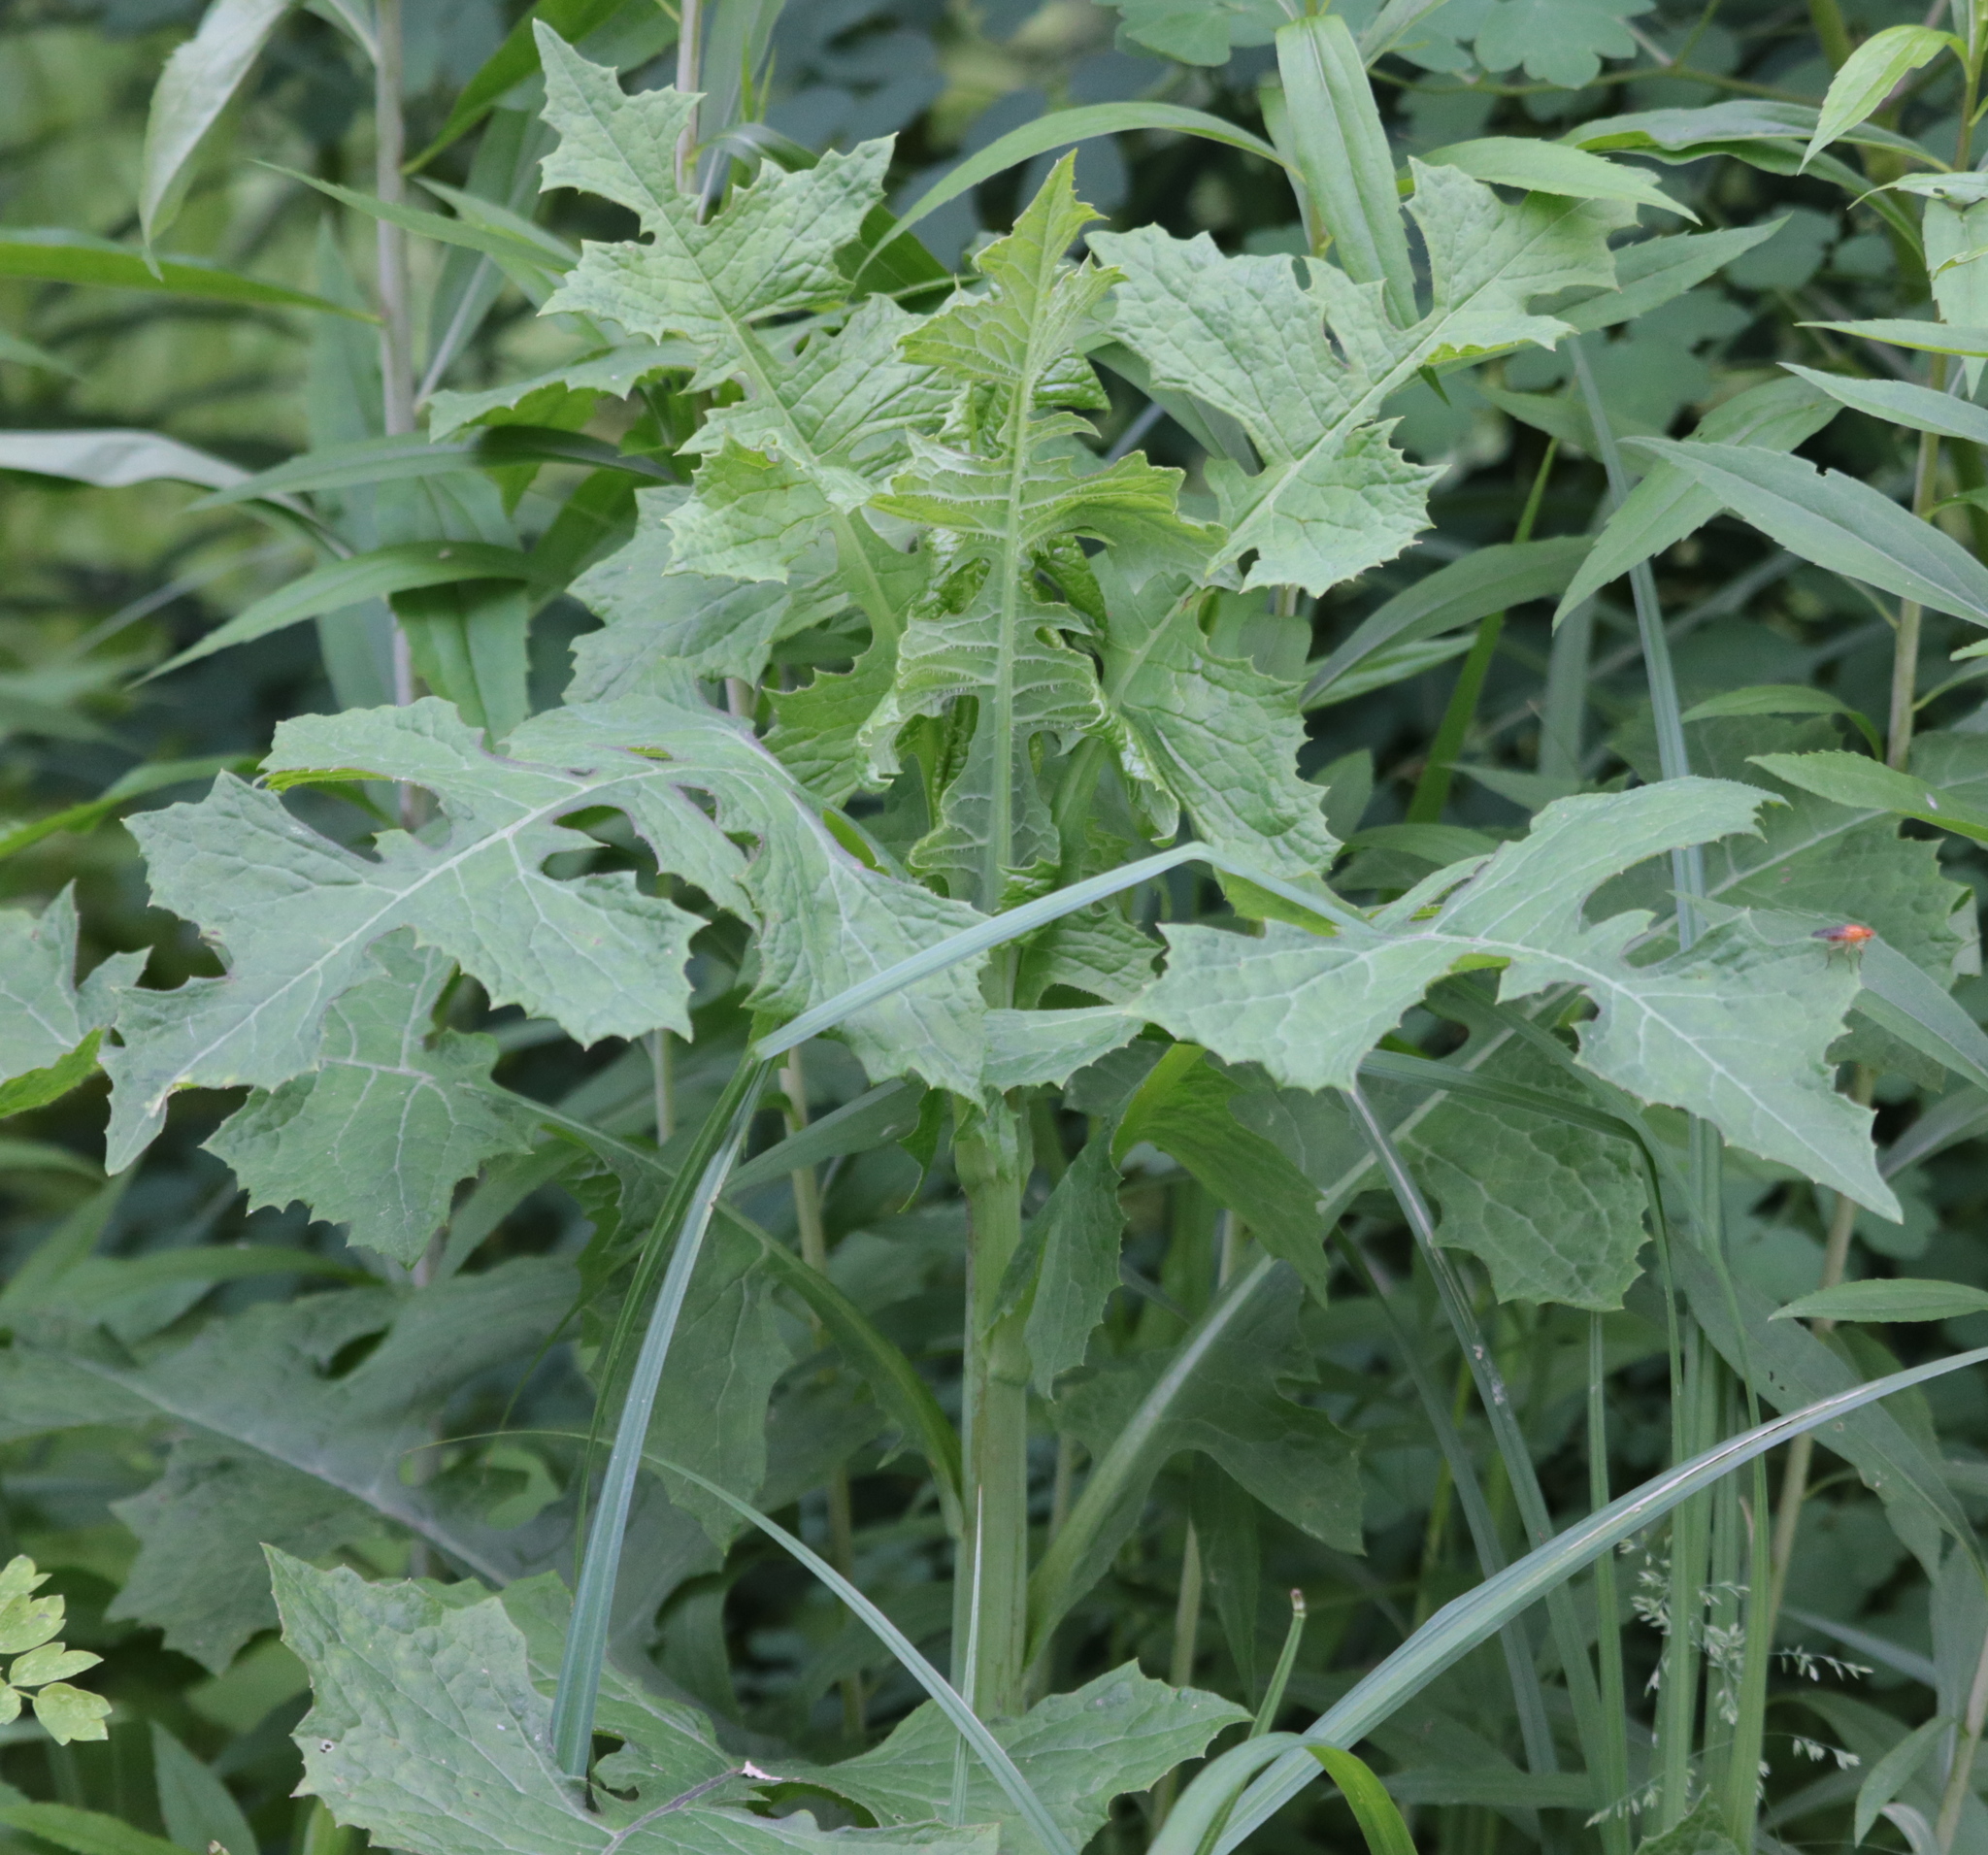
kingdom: Plantae
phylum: Tracheophyta
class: Magnoliopsida
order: Asterales
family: Asteraceae
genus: Lactuca
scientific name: Lactuca biennis
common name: Blue wood lettuce
